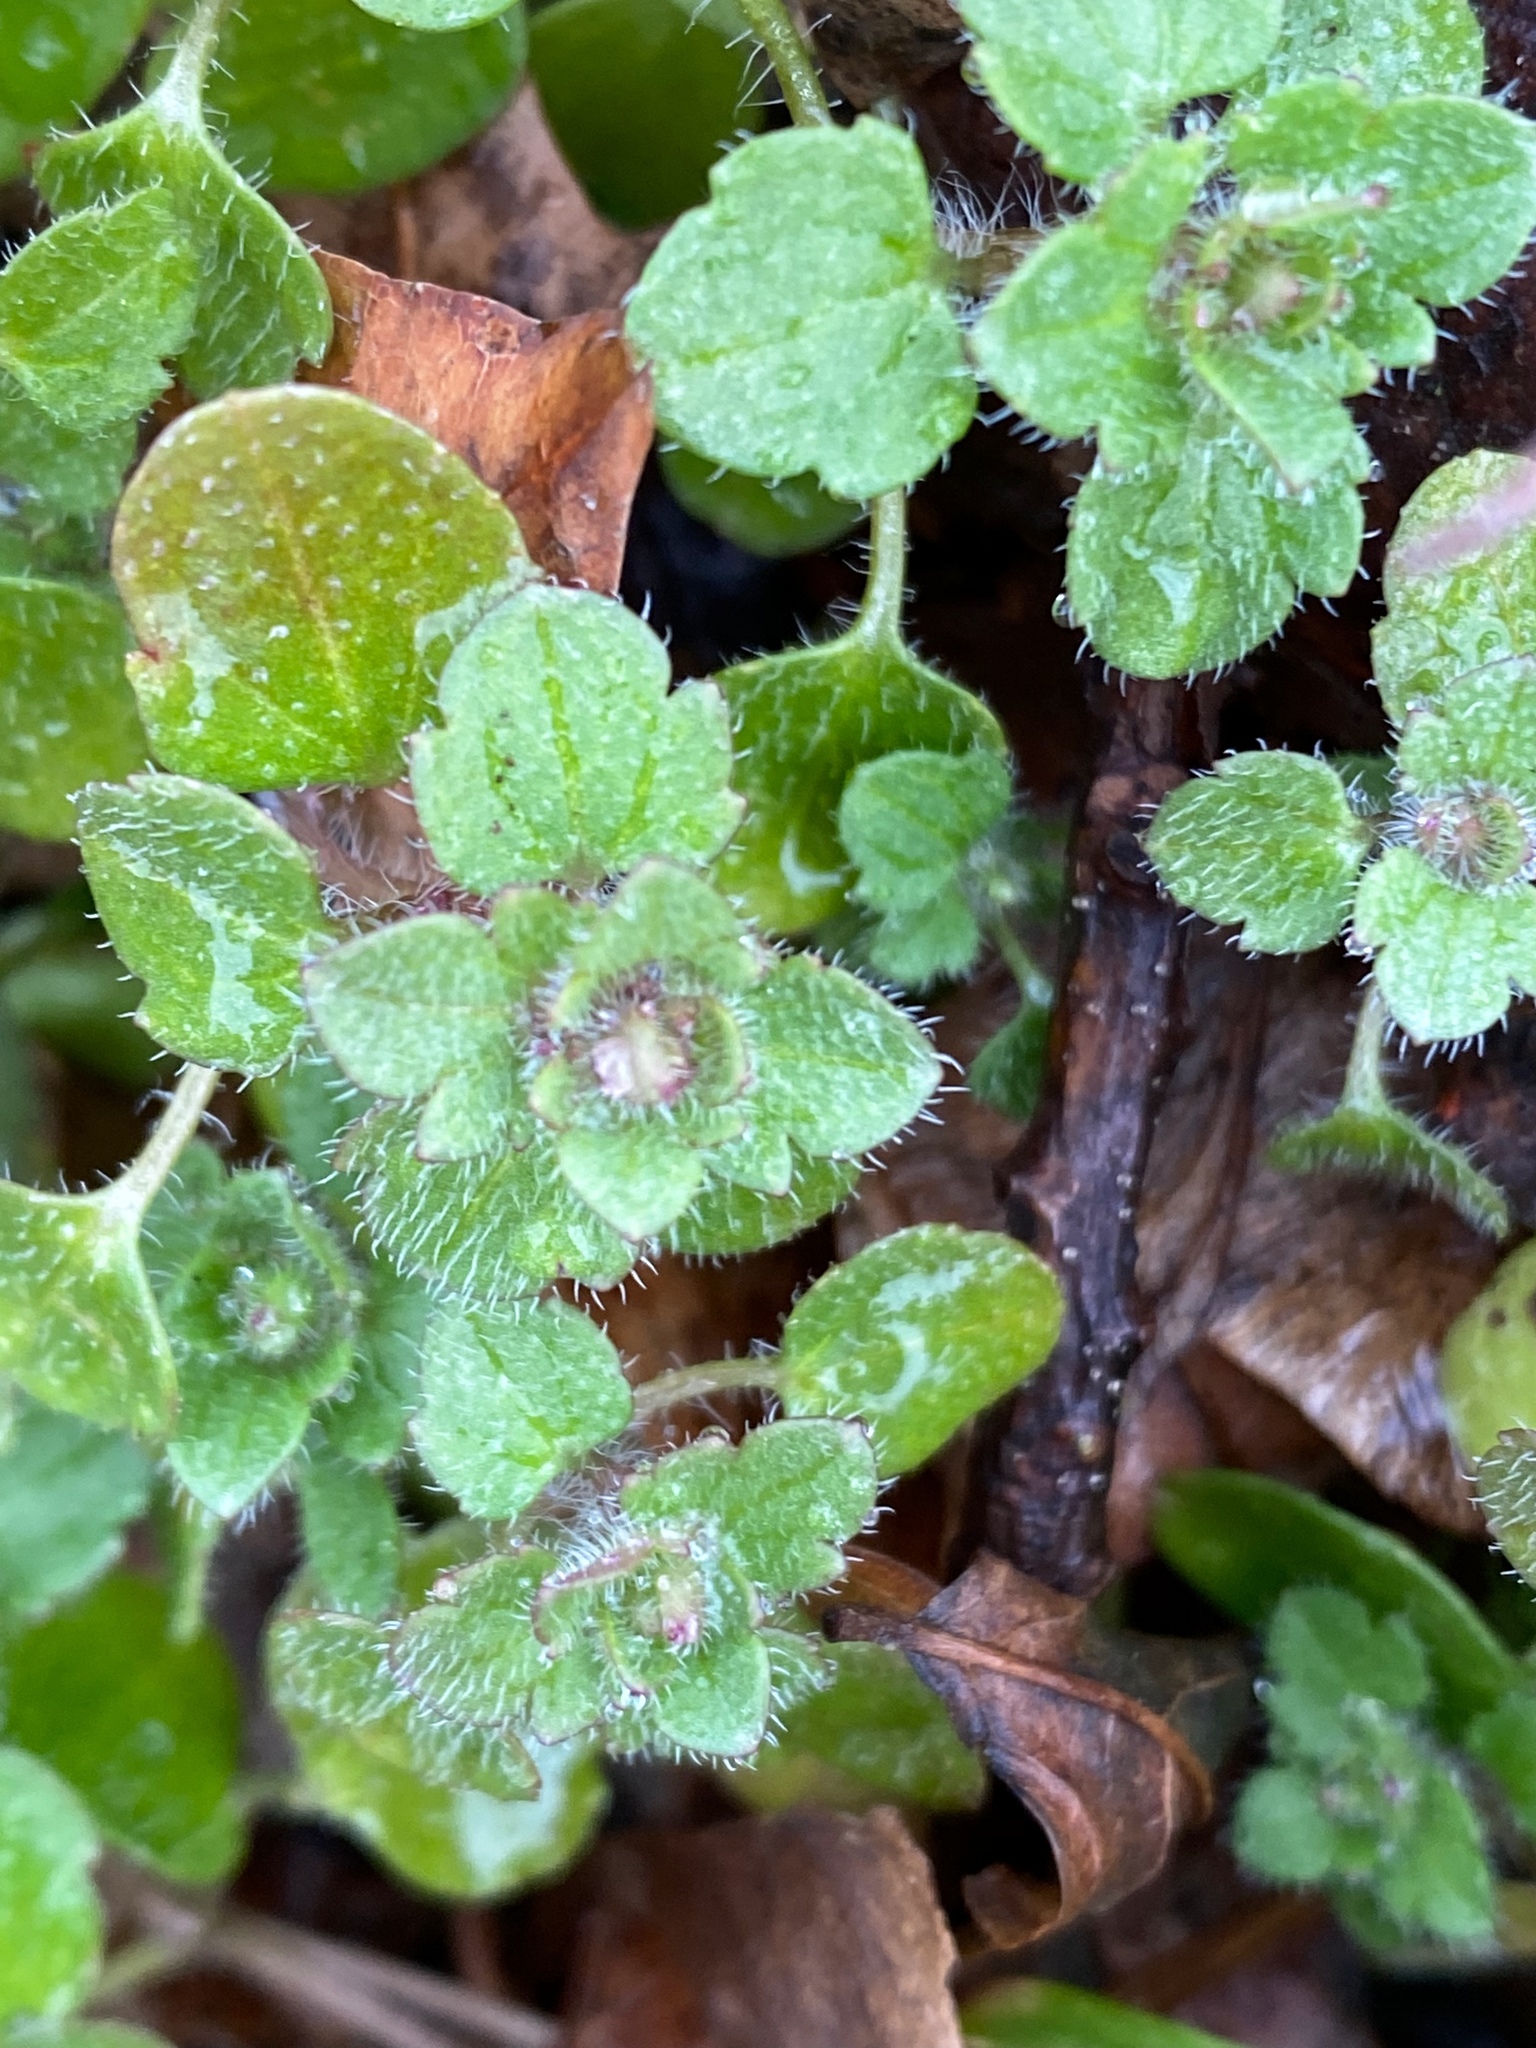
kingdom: Plantae
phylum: Tracheophyta
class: Magnoliopsida
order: Lamiales
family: Plantaginaceae
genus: Veronica
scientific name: Veronica hederifolia
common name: Ivy-leaved speedwell
